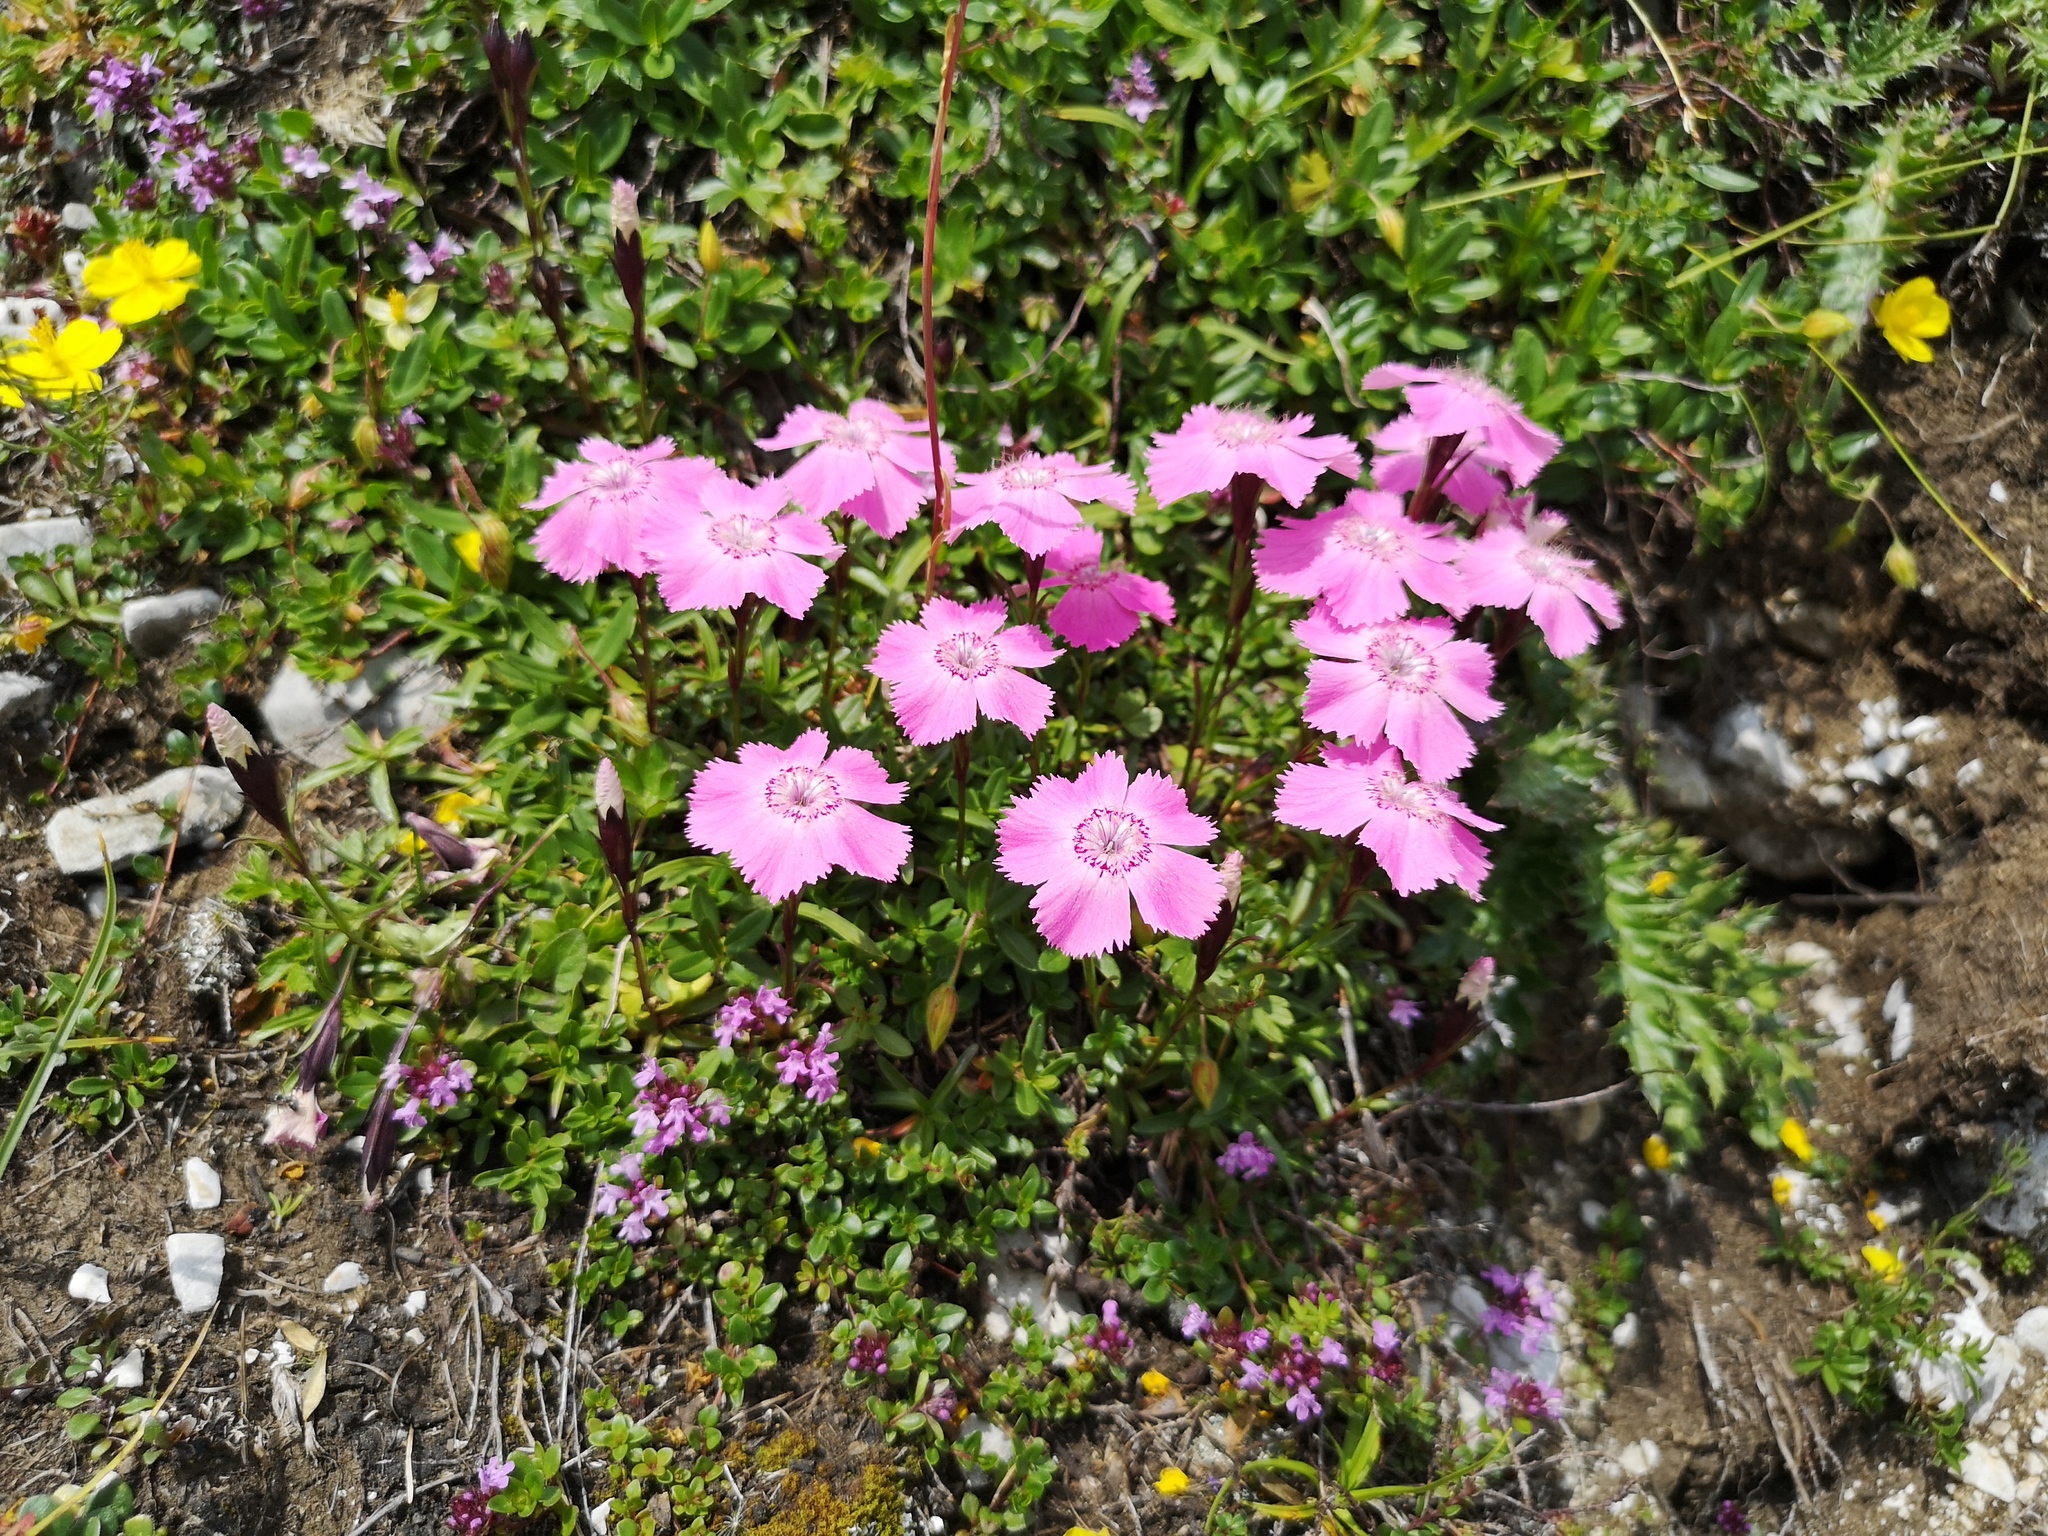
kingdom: Plantae
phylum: Tracheophyta
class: Magnoliopsida
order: Caryophyllales
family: Caryophyllaceae
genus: Dianthus
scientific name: Dianthus alpinus
